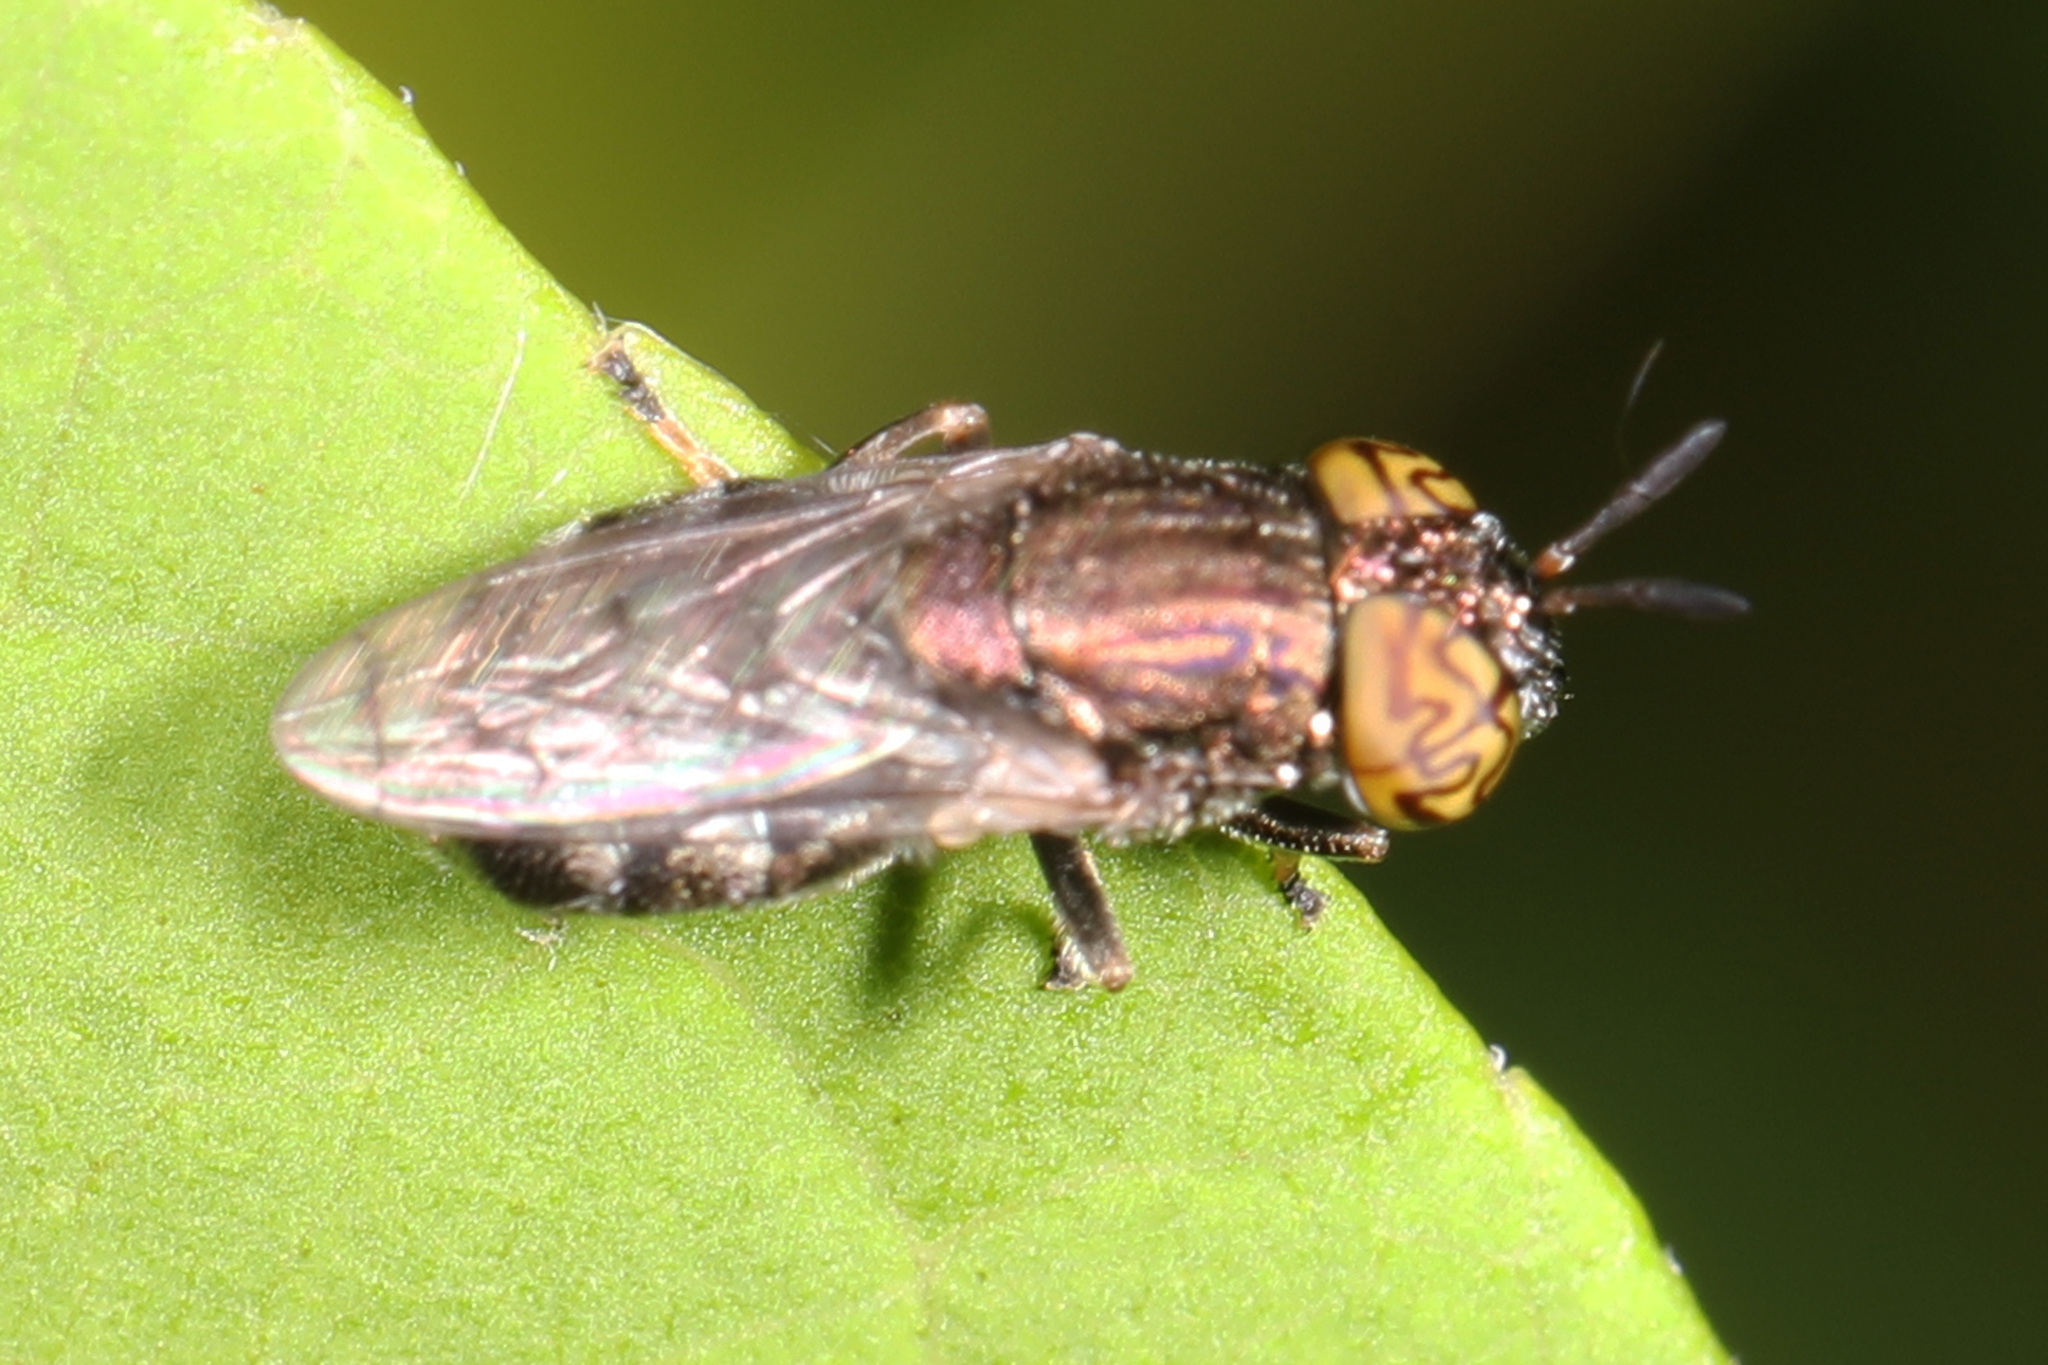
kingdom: Animalia
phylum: Arthropoda
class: Insecta
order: Diptera
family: Syrphidae
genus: Orthonevra
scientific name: Orthonevra nitida
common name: Wavy mucksucker
